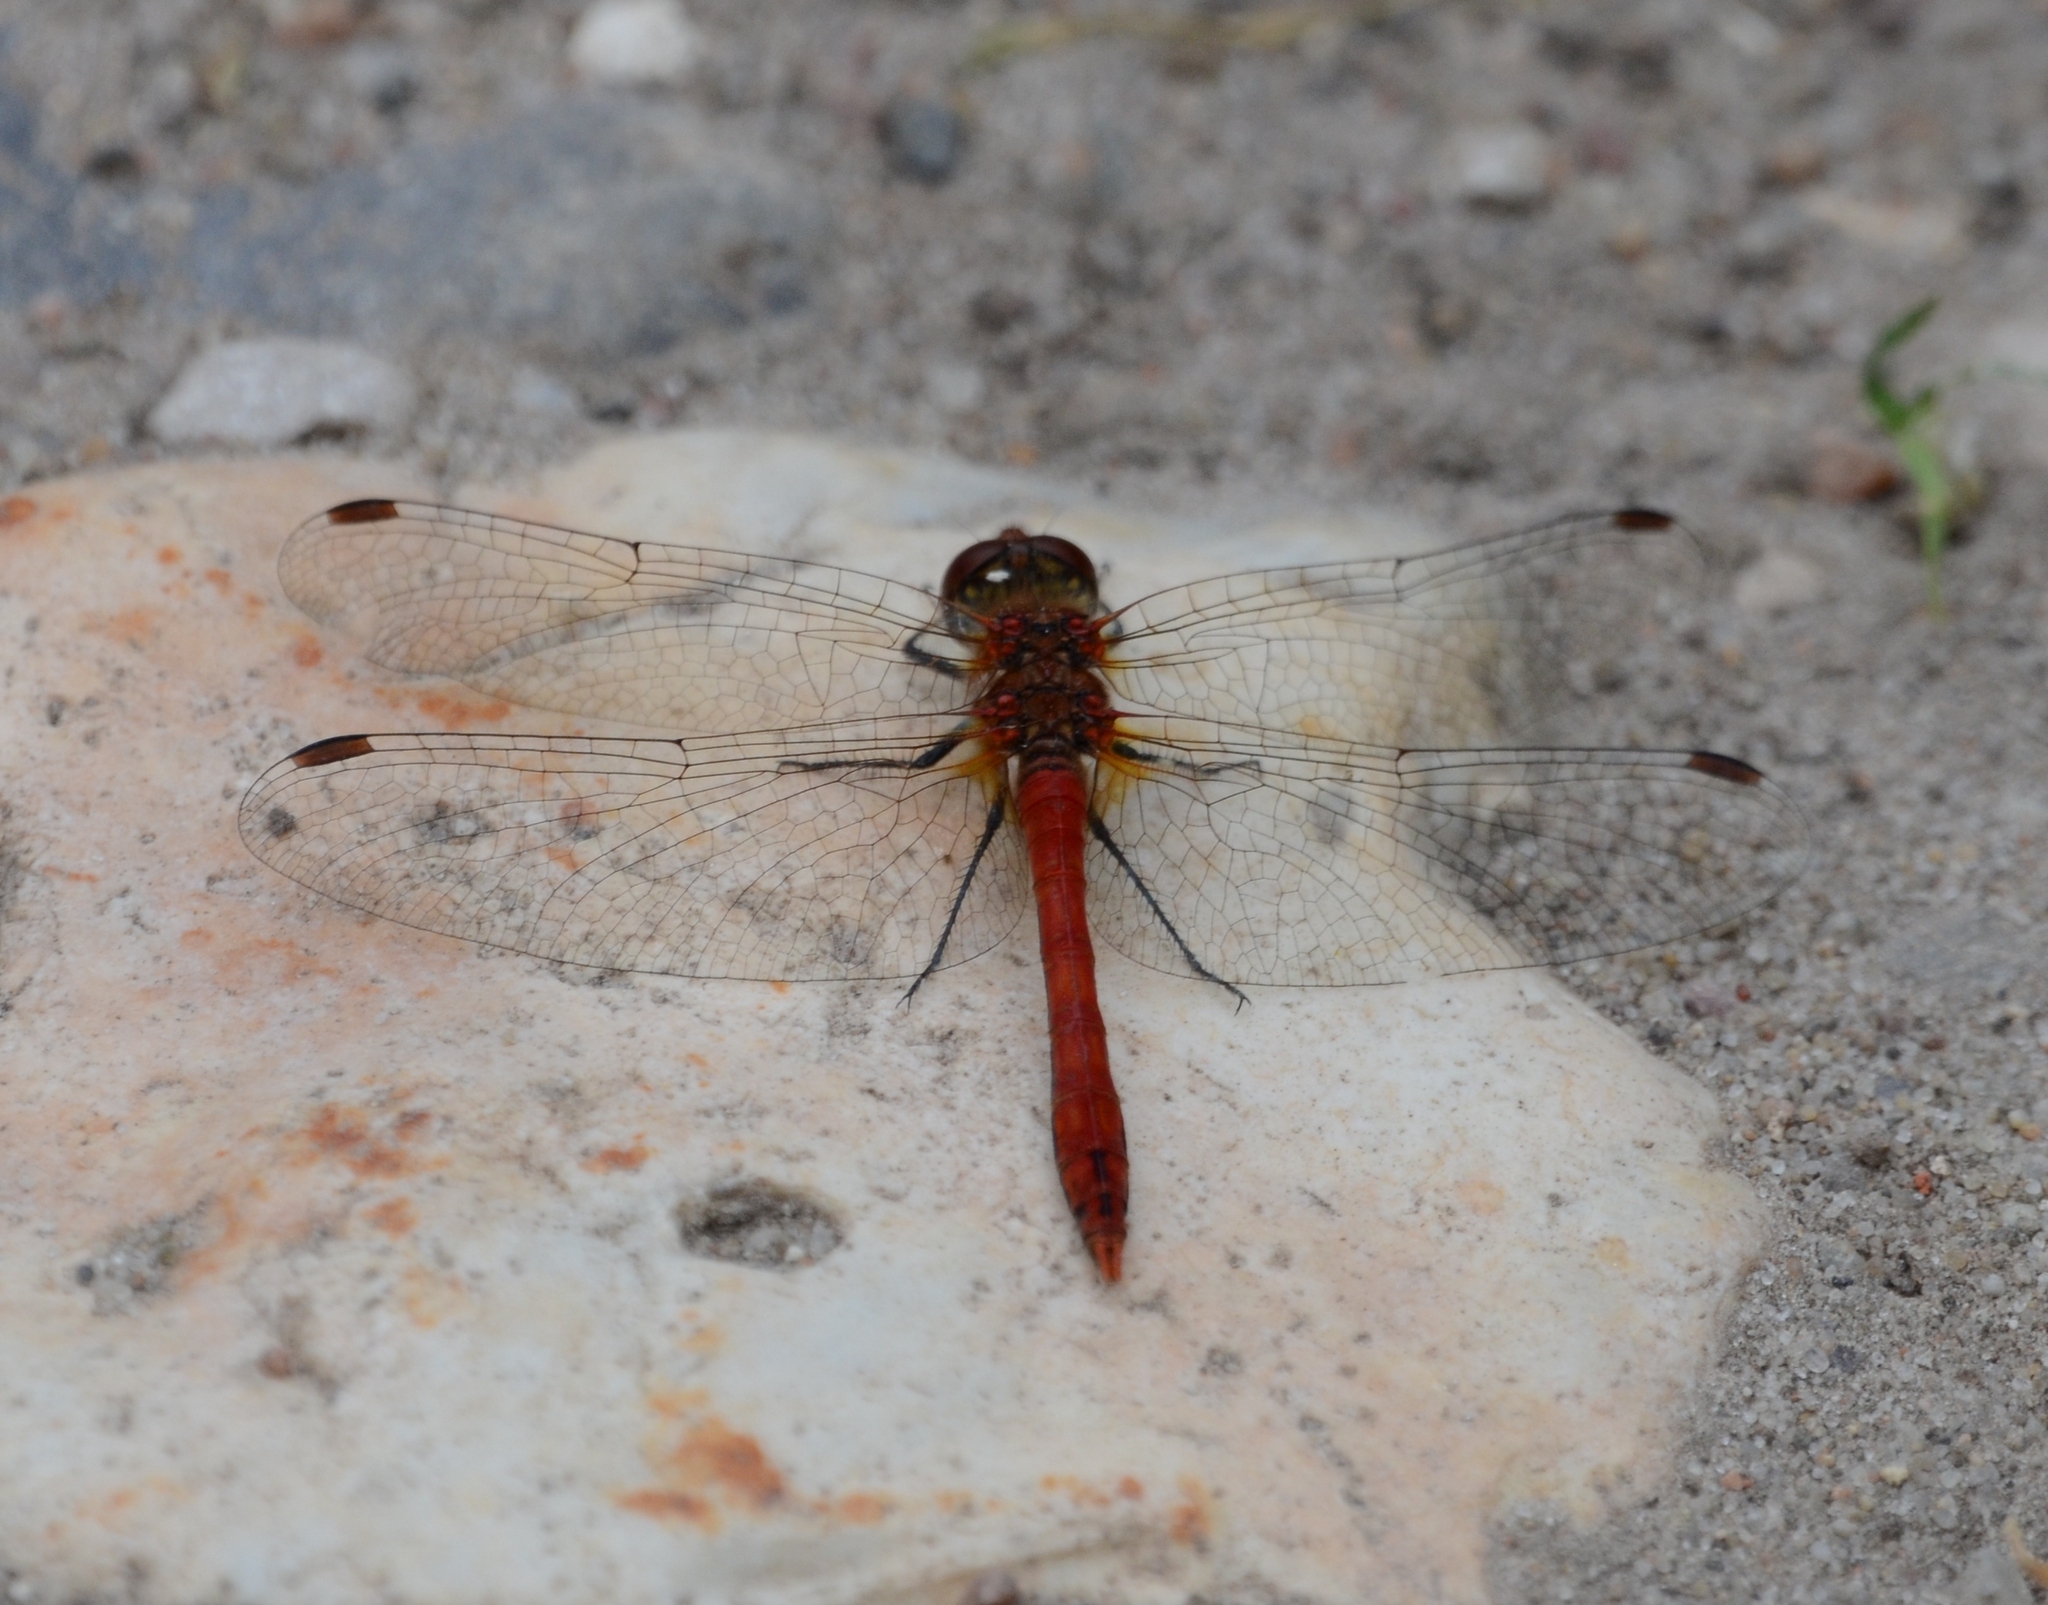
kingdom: Animalia
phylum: Arthropoda
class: Insecta
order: Odonata
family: Libellulidae
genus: Sympetrum
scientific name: Sympetrum sanguineum
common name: Ruddy darter
